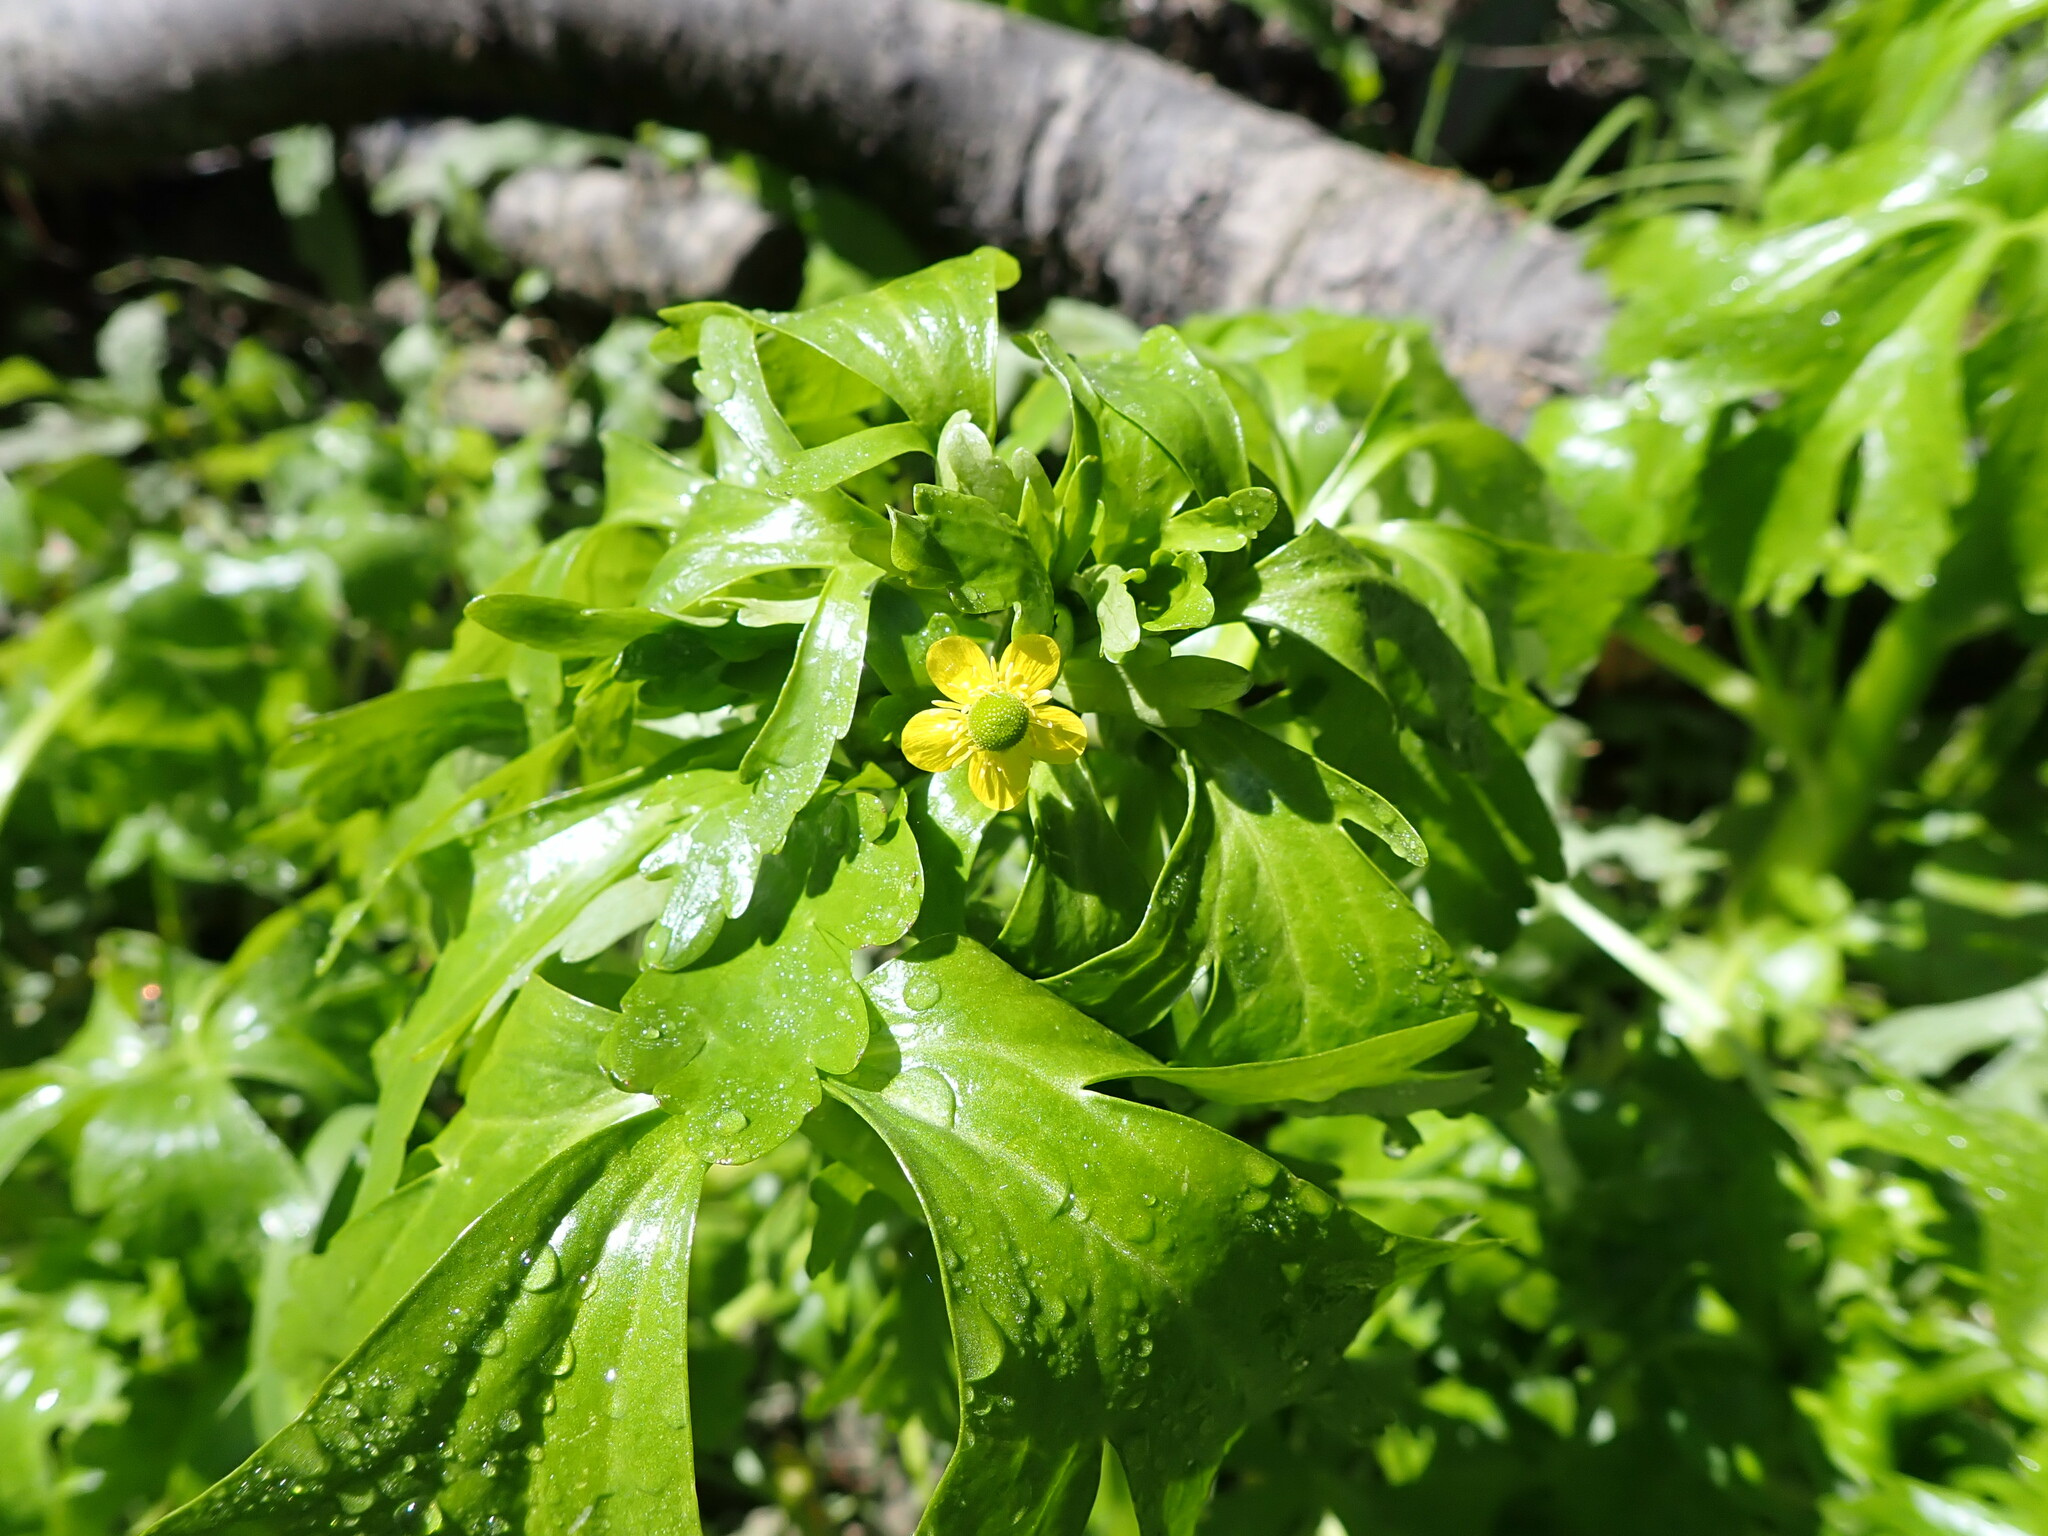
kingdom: Plantae
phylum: Tracheophyta
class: Magnoliopsida
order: Ranunculales
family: Ranunculaceae
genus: Ranunculus
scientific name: Ranunculus sceleratus
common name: Celery-leaved buttercup
